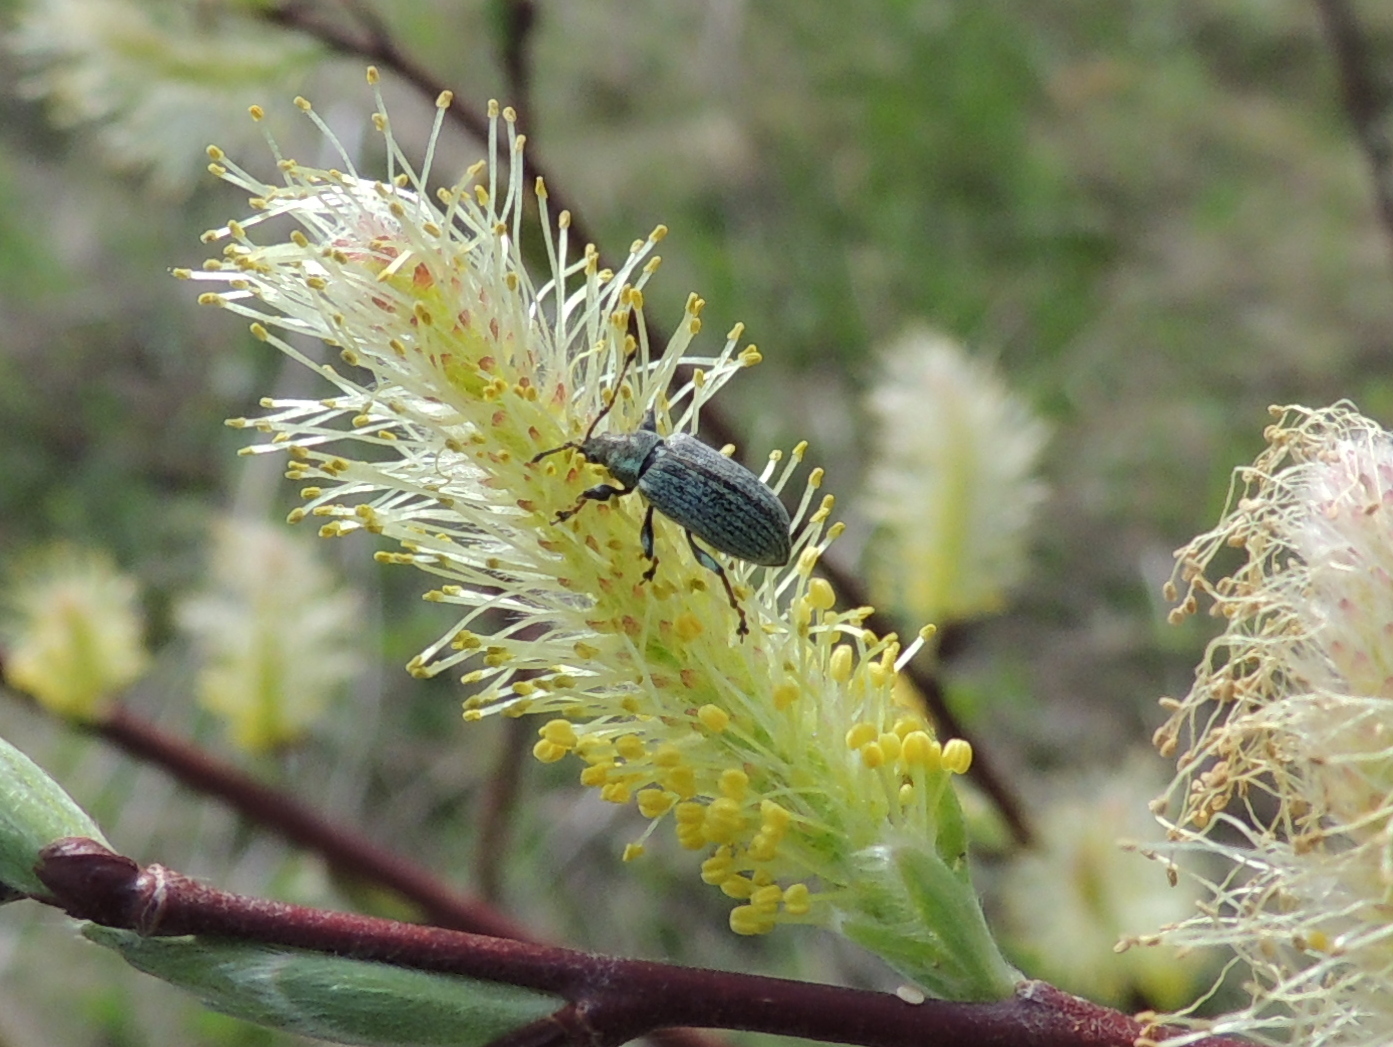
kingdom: Animalia
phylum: Arthropoda
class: Insecta
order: Coleoptera
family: Curculionidae
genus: Phyllobius
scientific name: Phyllobius pyri
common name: Common leaf weevil
